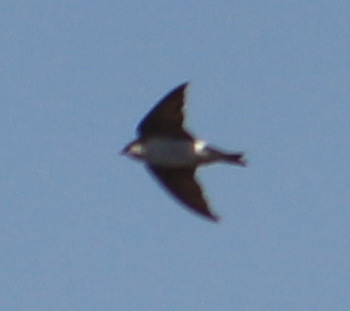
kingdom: Animalia
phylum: Chordata
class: Aves
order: Passeriformes
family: Hirundinidae
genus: Tachycineta
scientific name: Tachycineta thalassina
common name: Violet-green swallow
